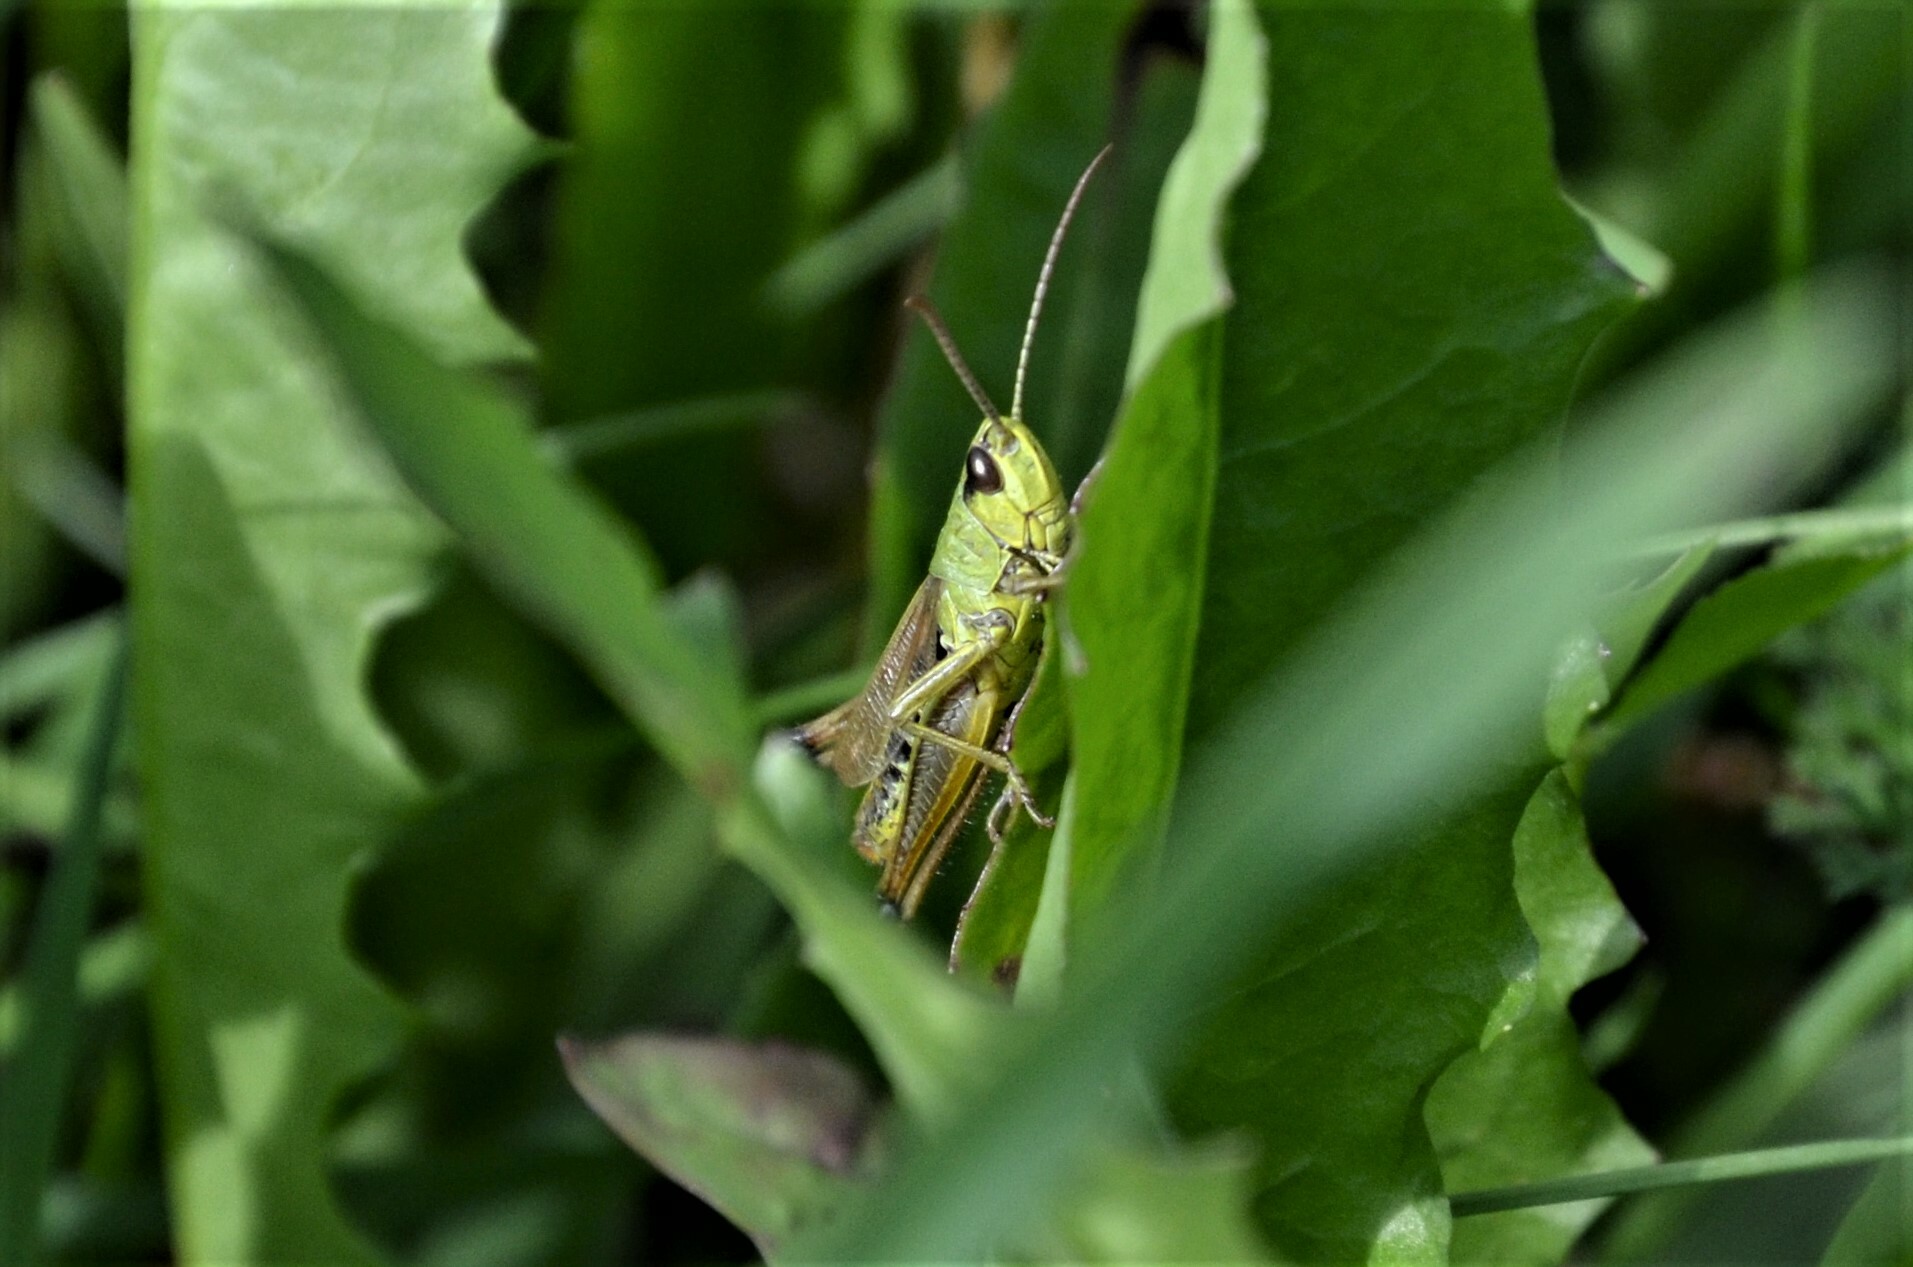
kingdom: Animalia
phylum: Arthropoda
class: Insecta
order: Orthoptera
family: Acrididae
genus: Pseudochorthippus
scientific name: Pseudochorthippus parallelus
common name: Meadow grasshopper
